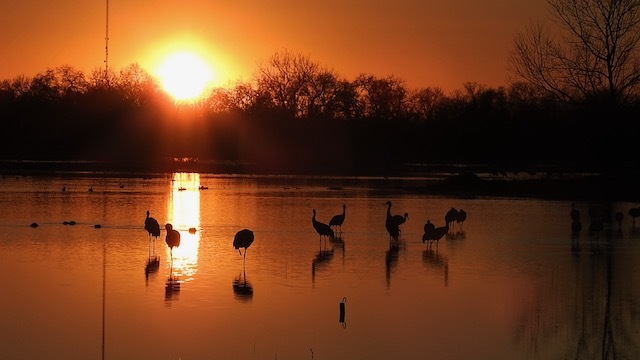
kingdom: Animalia
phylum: Chordata
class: Aves
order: Gruiformes
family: Gruidae
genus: Grus
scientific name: Grus canadensis
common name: Sandhill crane
